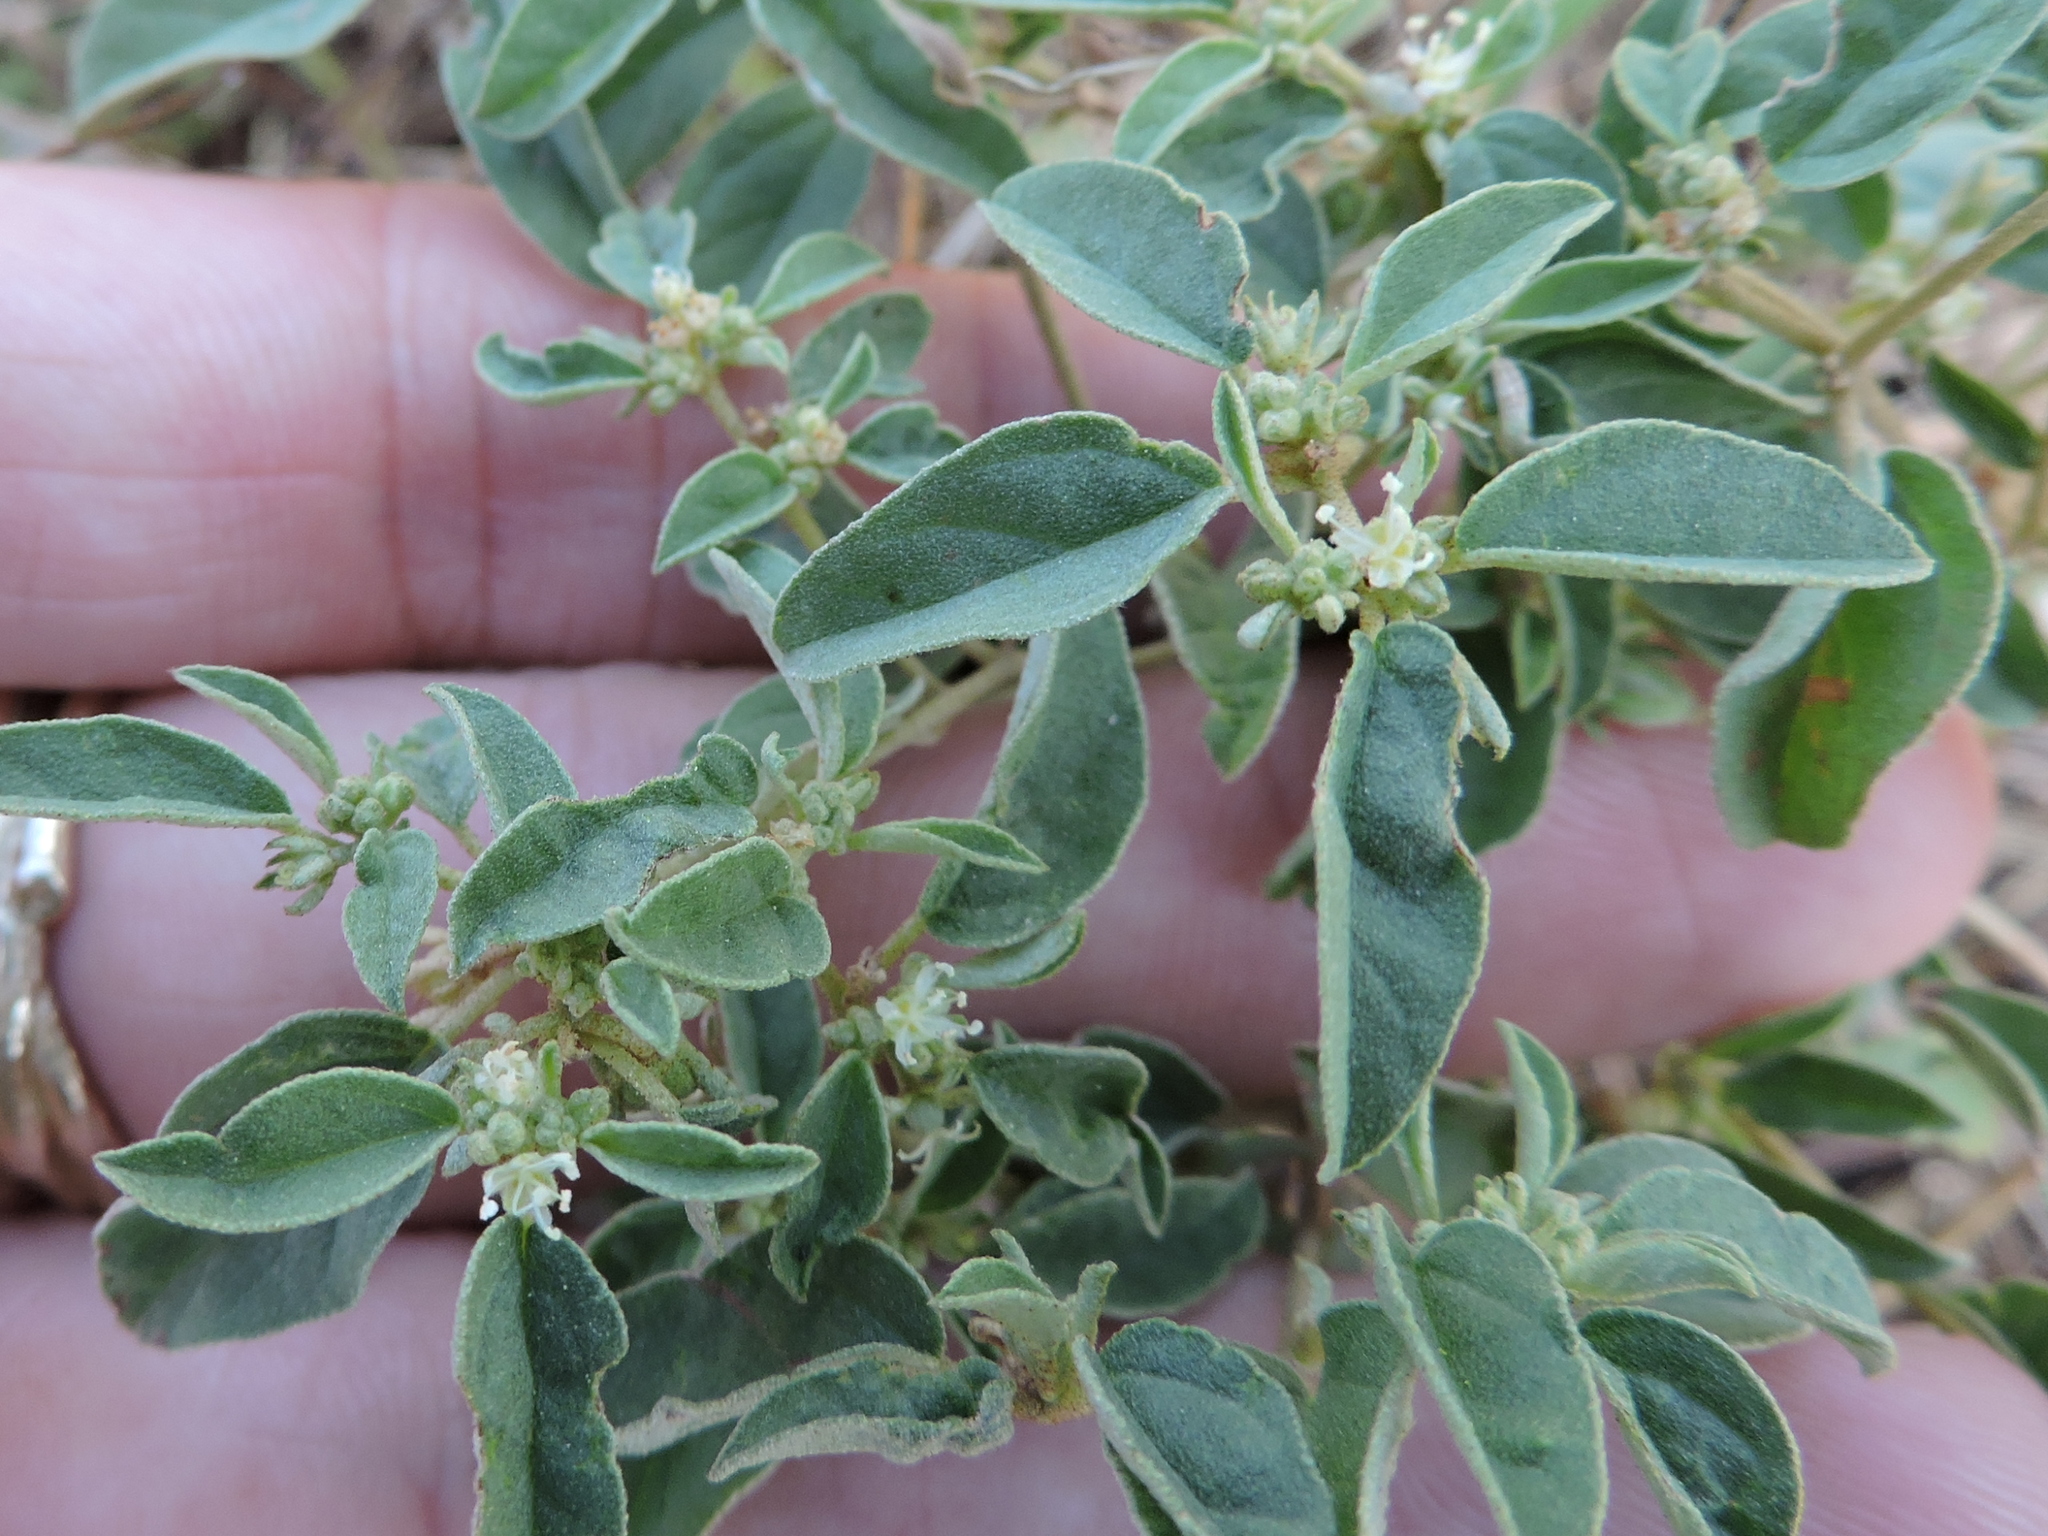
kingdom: Plantae
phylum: Tracheophyta
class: Magnoliopsida
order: Malpighiales
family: Euphorbiaceae
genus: Croton
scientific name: Croton monanthogynus
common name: One-seed croton
